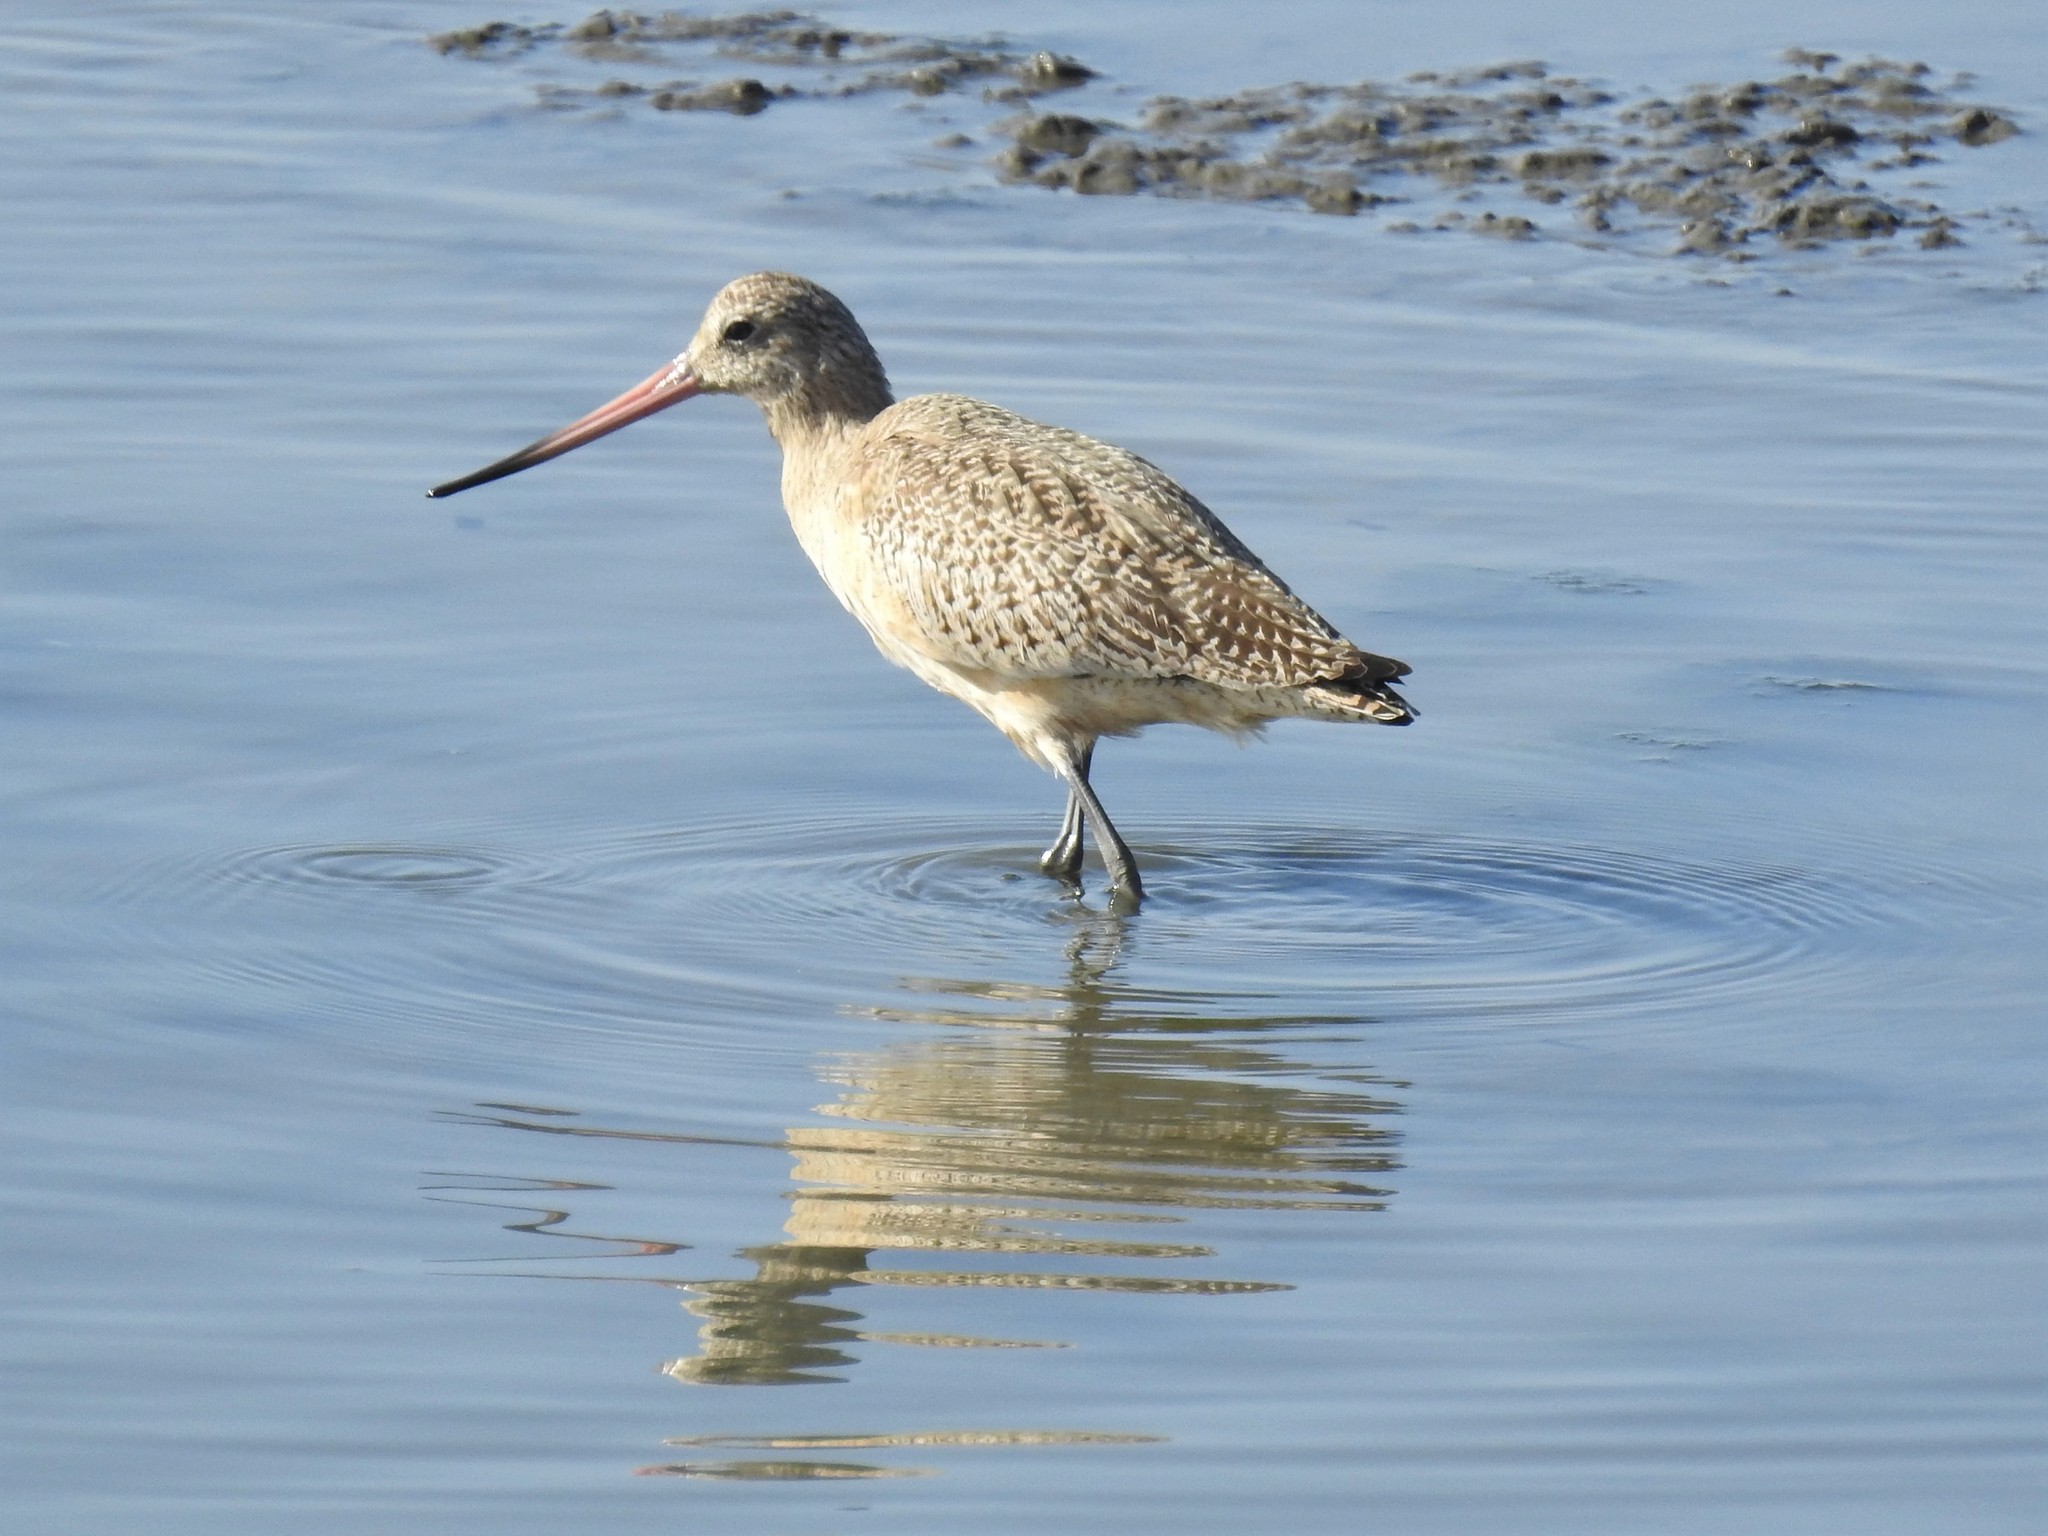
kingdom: Animalia
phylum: Chordata
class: Aves
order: Charadriiformes
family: Scolopacidae
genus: Limosa
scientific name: Limosa fedoa
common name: Marbled godwit
